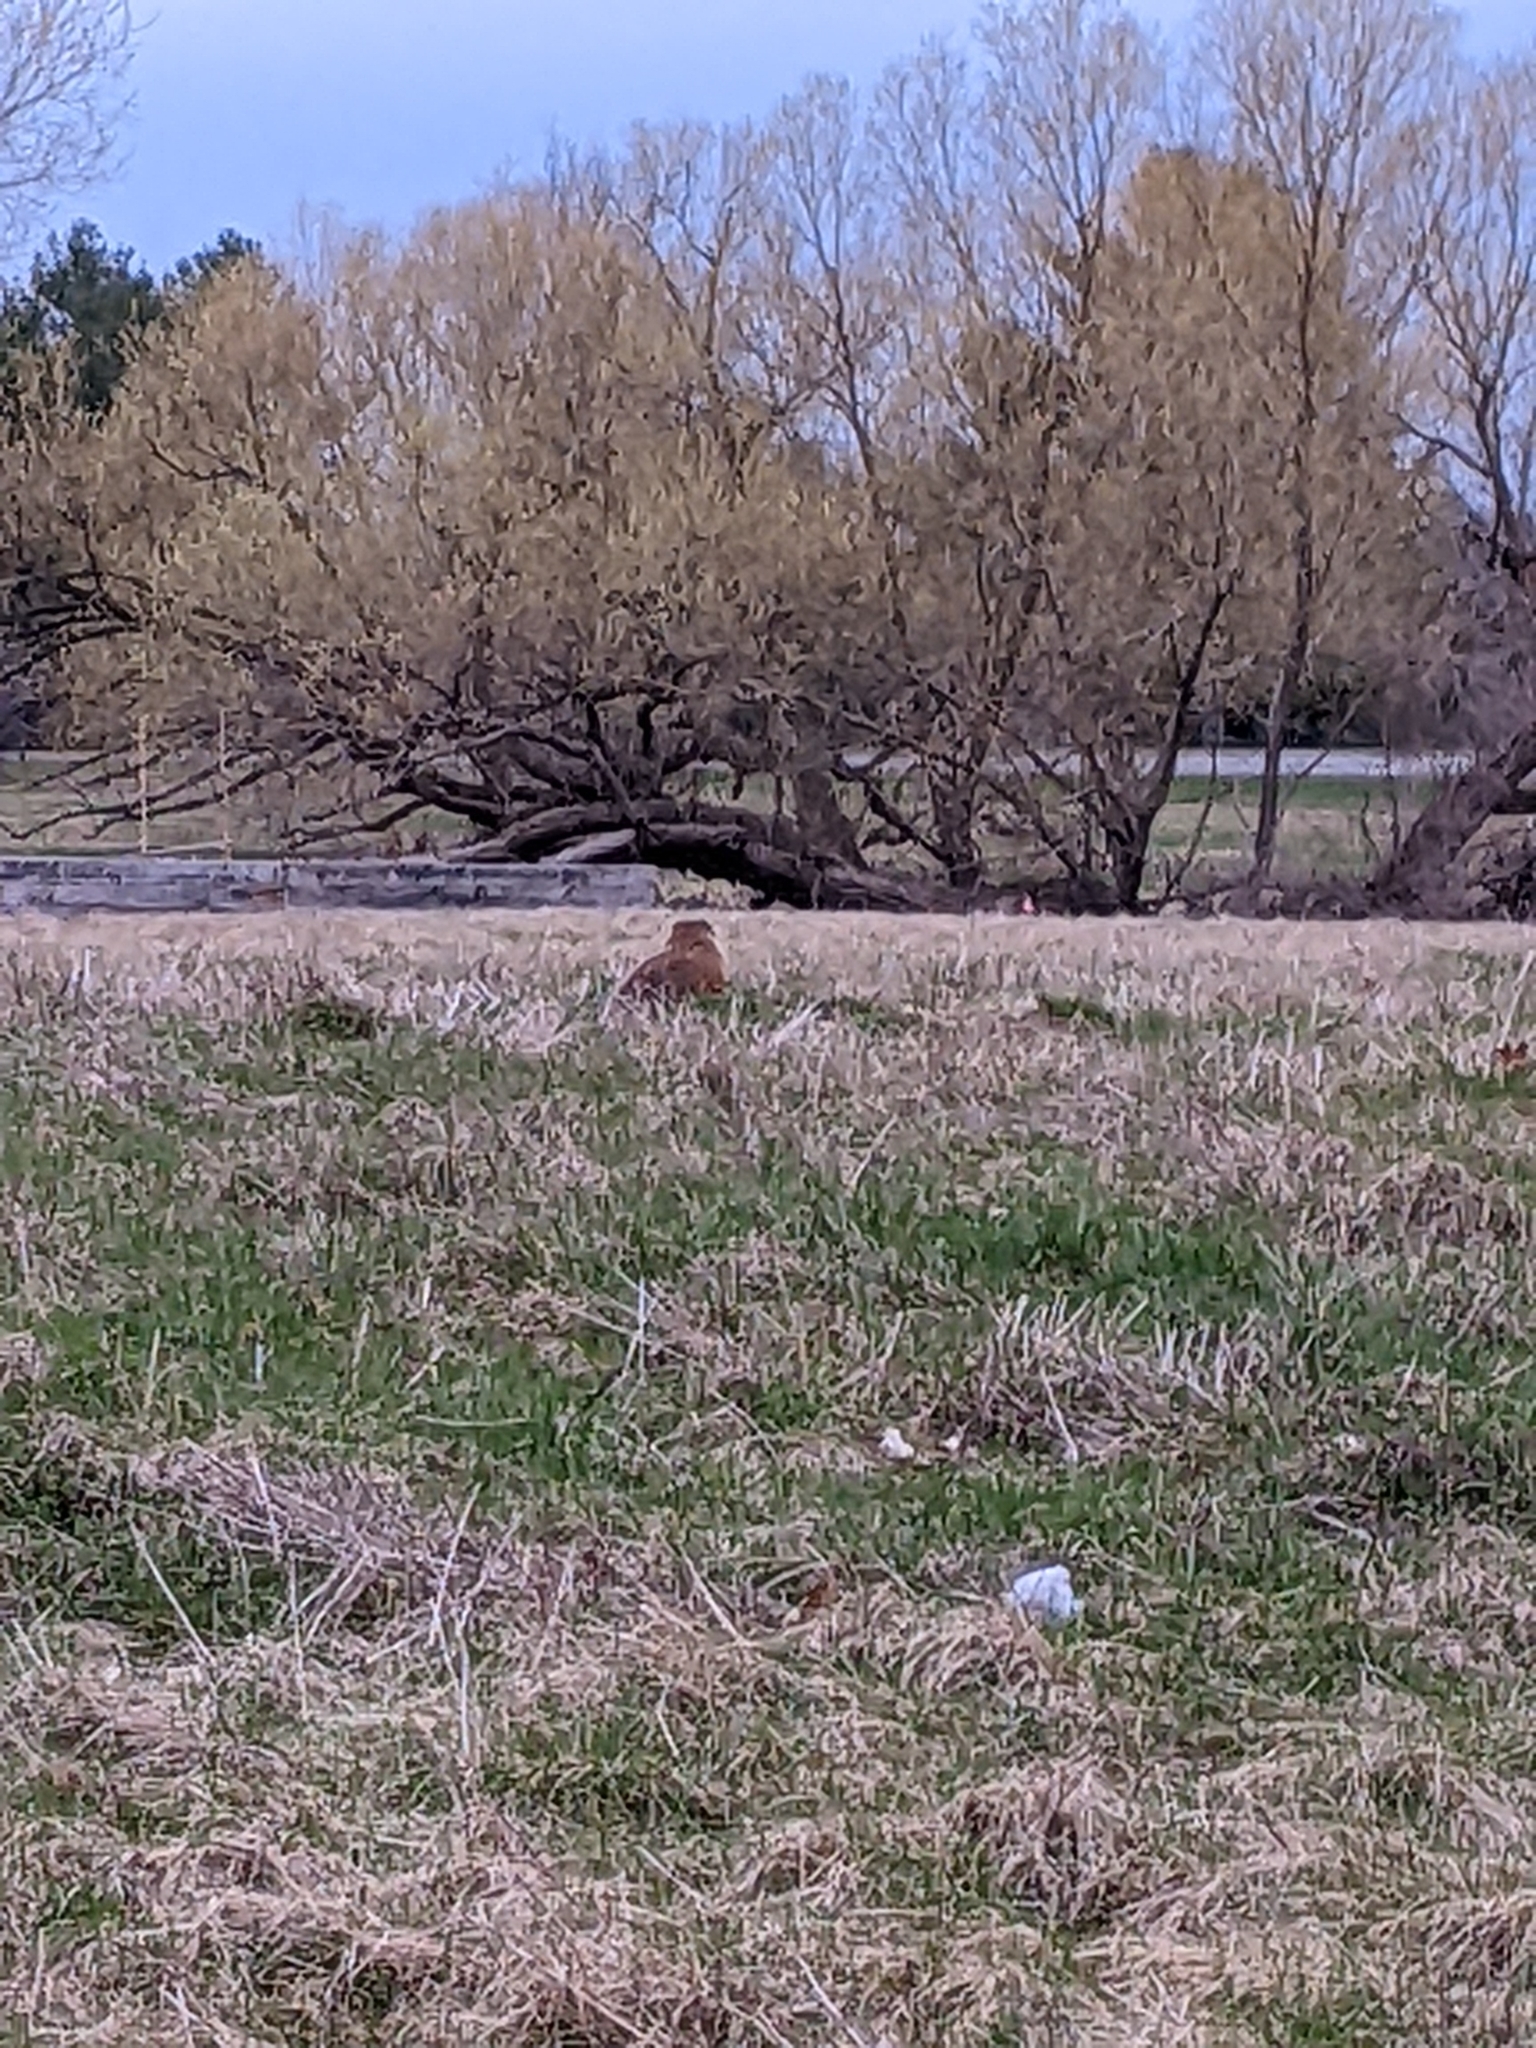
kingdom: Animalia
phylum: Chordata
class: Mammalia
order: Rodentia
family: Sciuridae
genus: Marmota
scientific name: Marmota monax
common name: Groundhog
